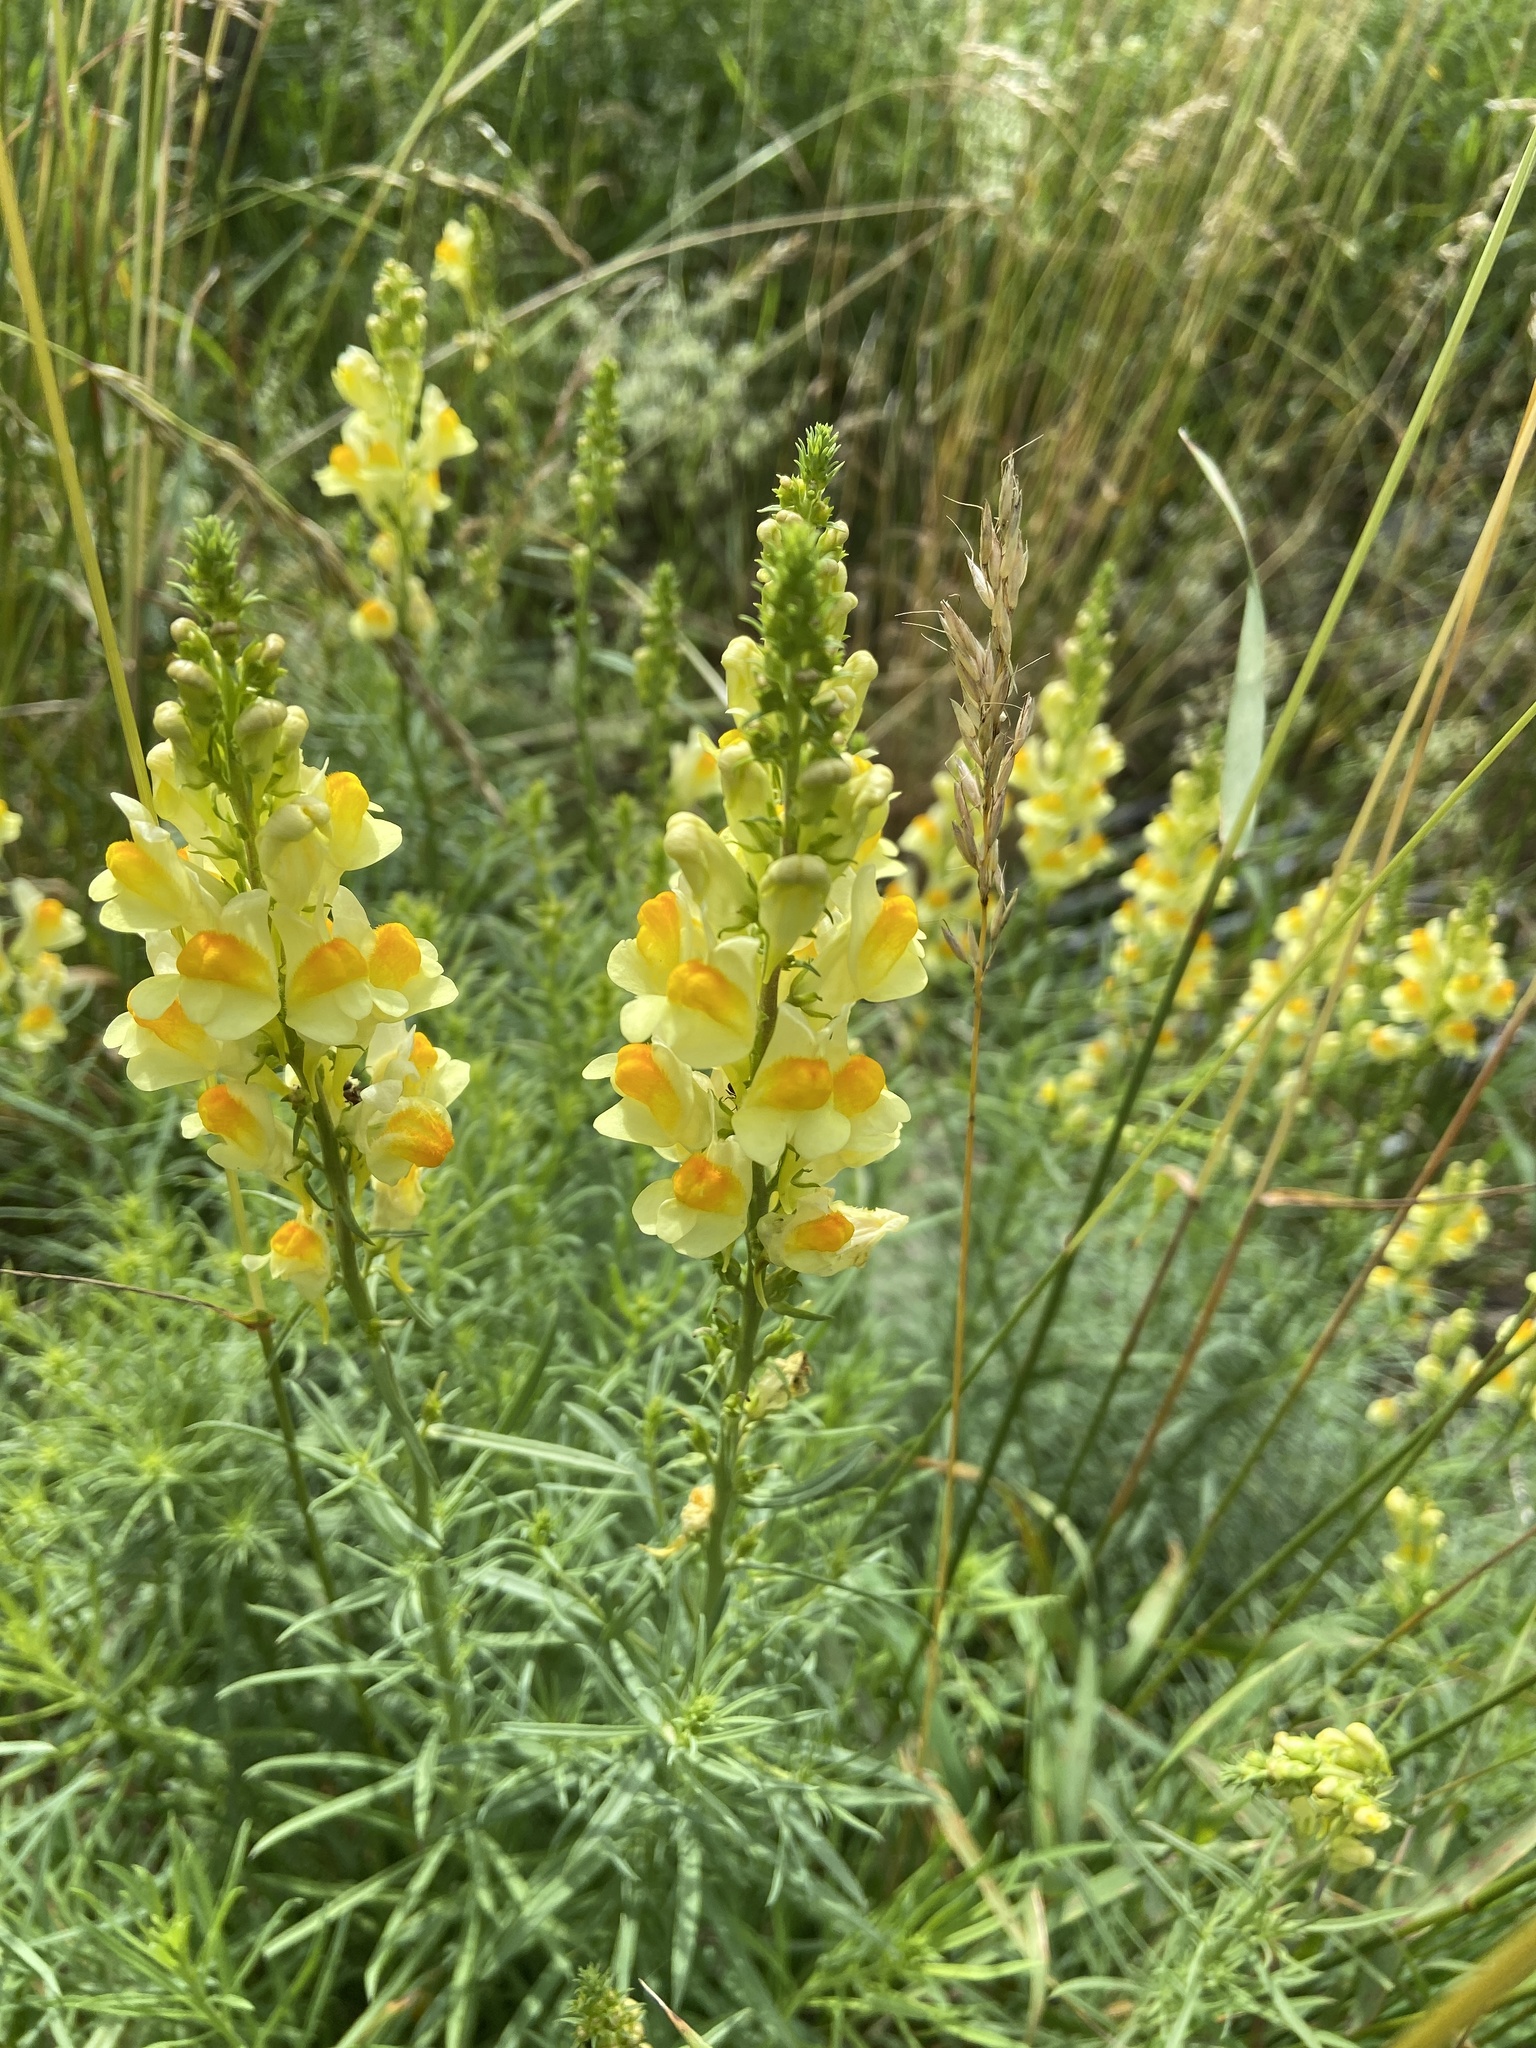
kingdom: Plantae
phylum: Tracheophyta
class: Magnoliopsida
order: Lamiales
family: Plantaginaceae
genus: Linaria
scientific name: Linaria vulgaris
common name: Butter and eggs
